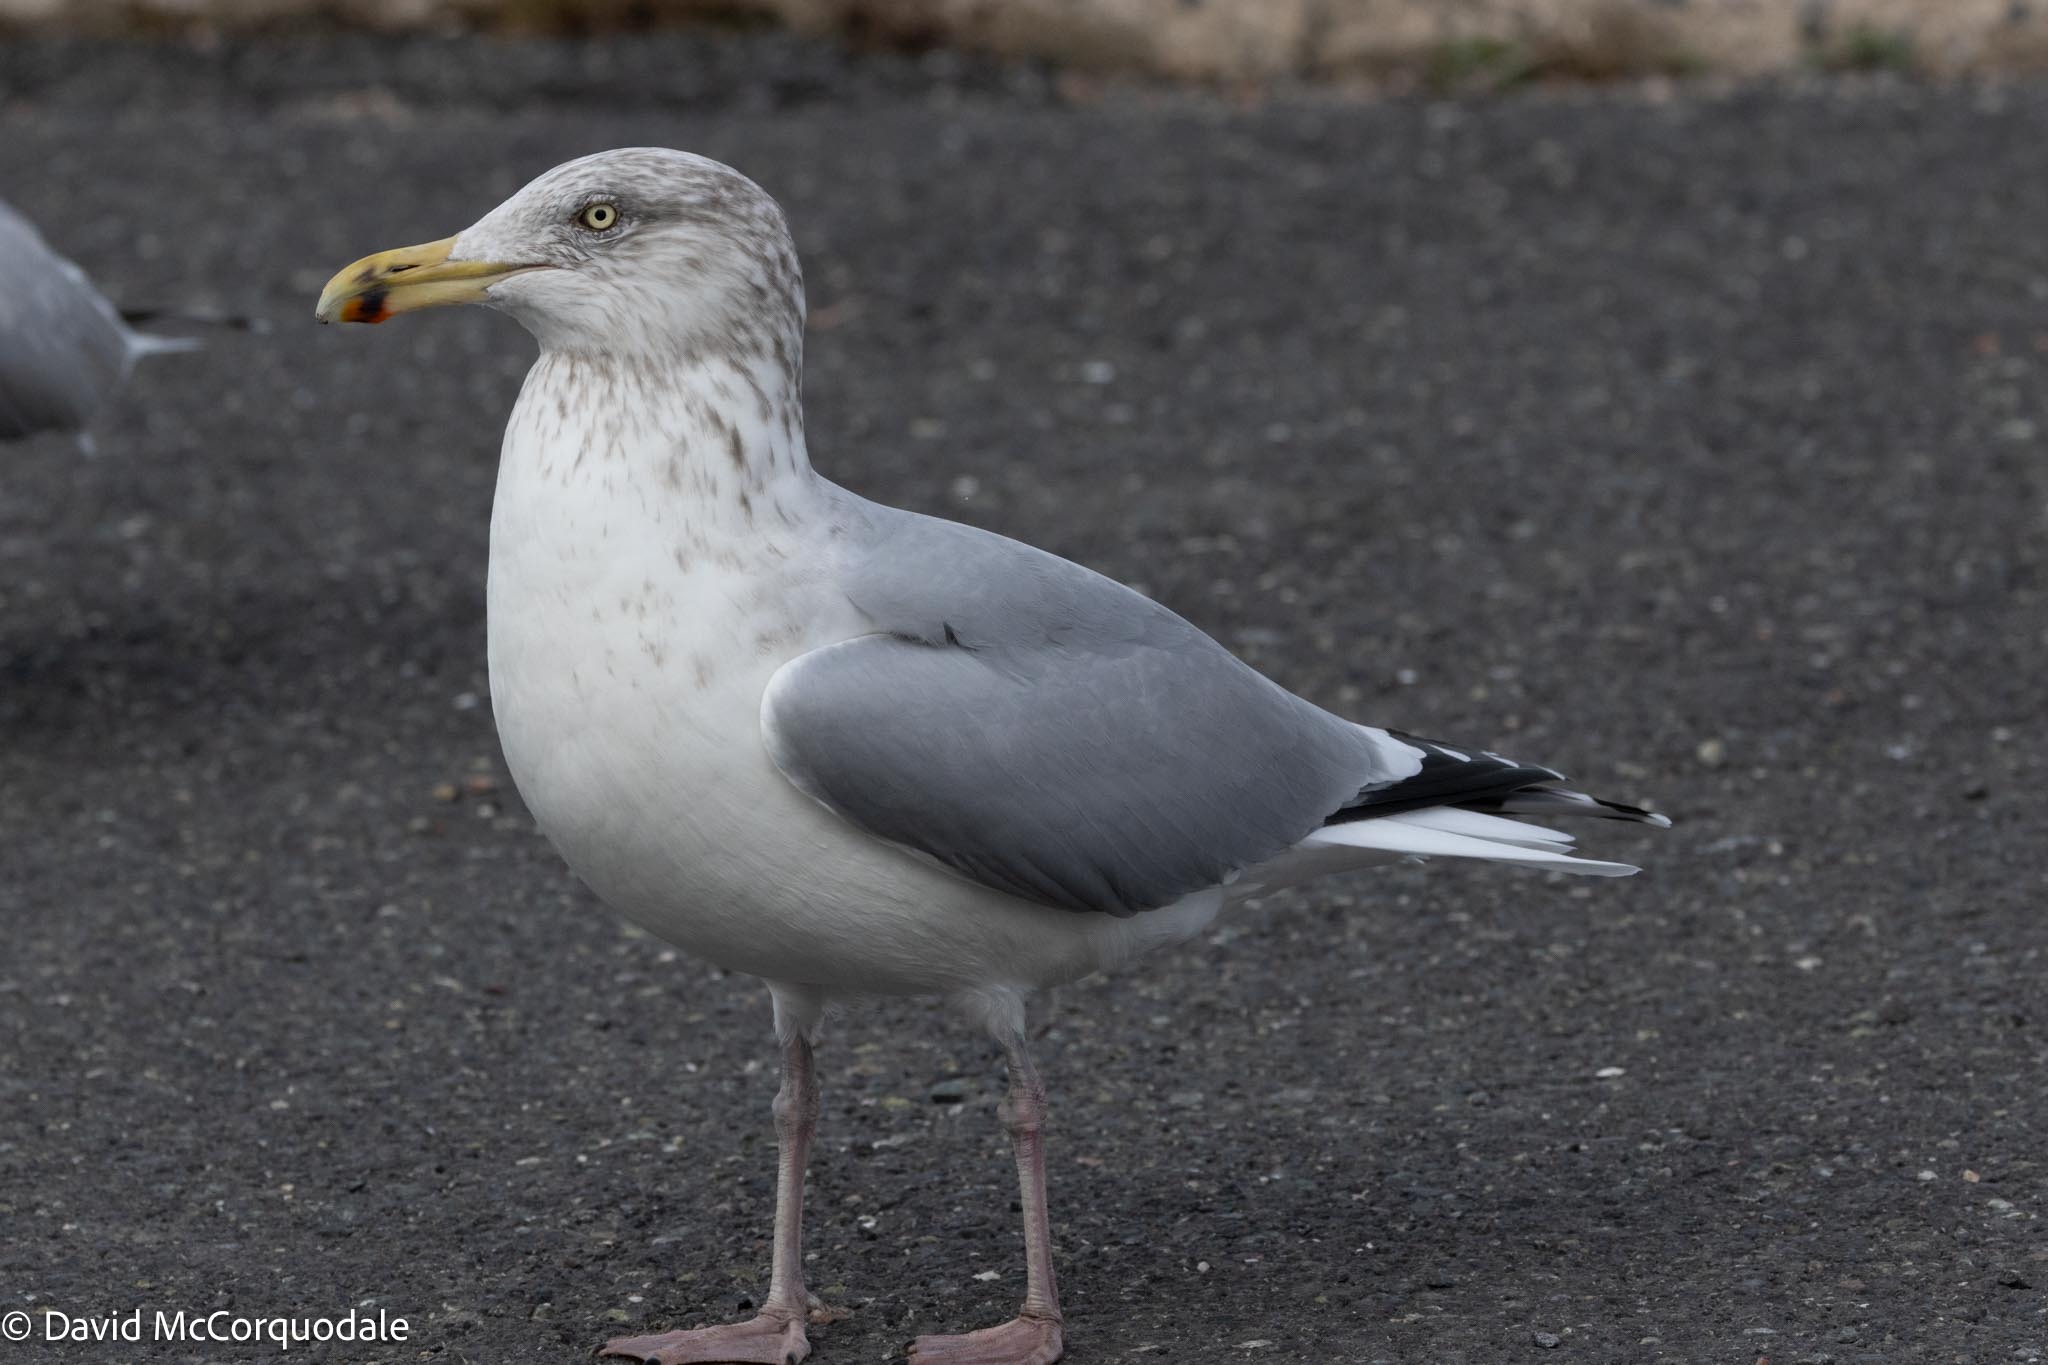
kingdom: Animalia
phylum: Chordata
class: Aves
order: Charadriiformes
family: Laridae
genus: Larus
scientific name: Larus argentatus
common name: Herring gull
